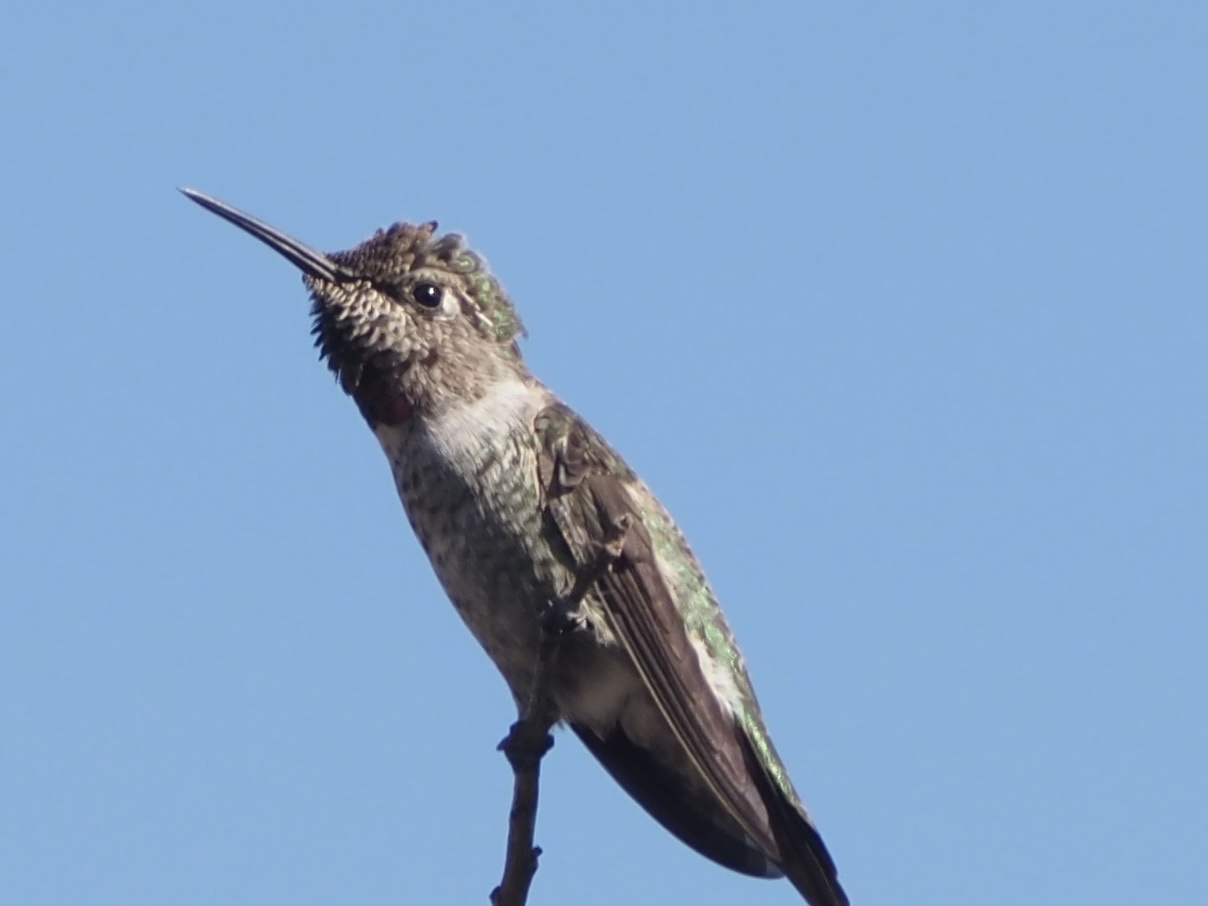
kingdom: Animalia
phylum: Chordata
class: Aves
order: Apodiformes
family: Trochilidae
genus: Calypte
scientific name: Calypte anna
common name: Anna's hummingbird
